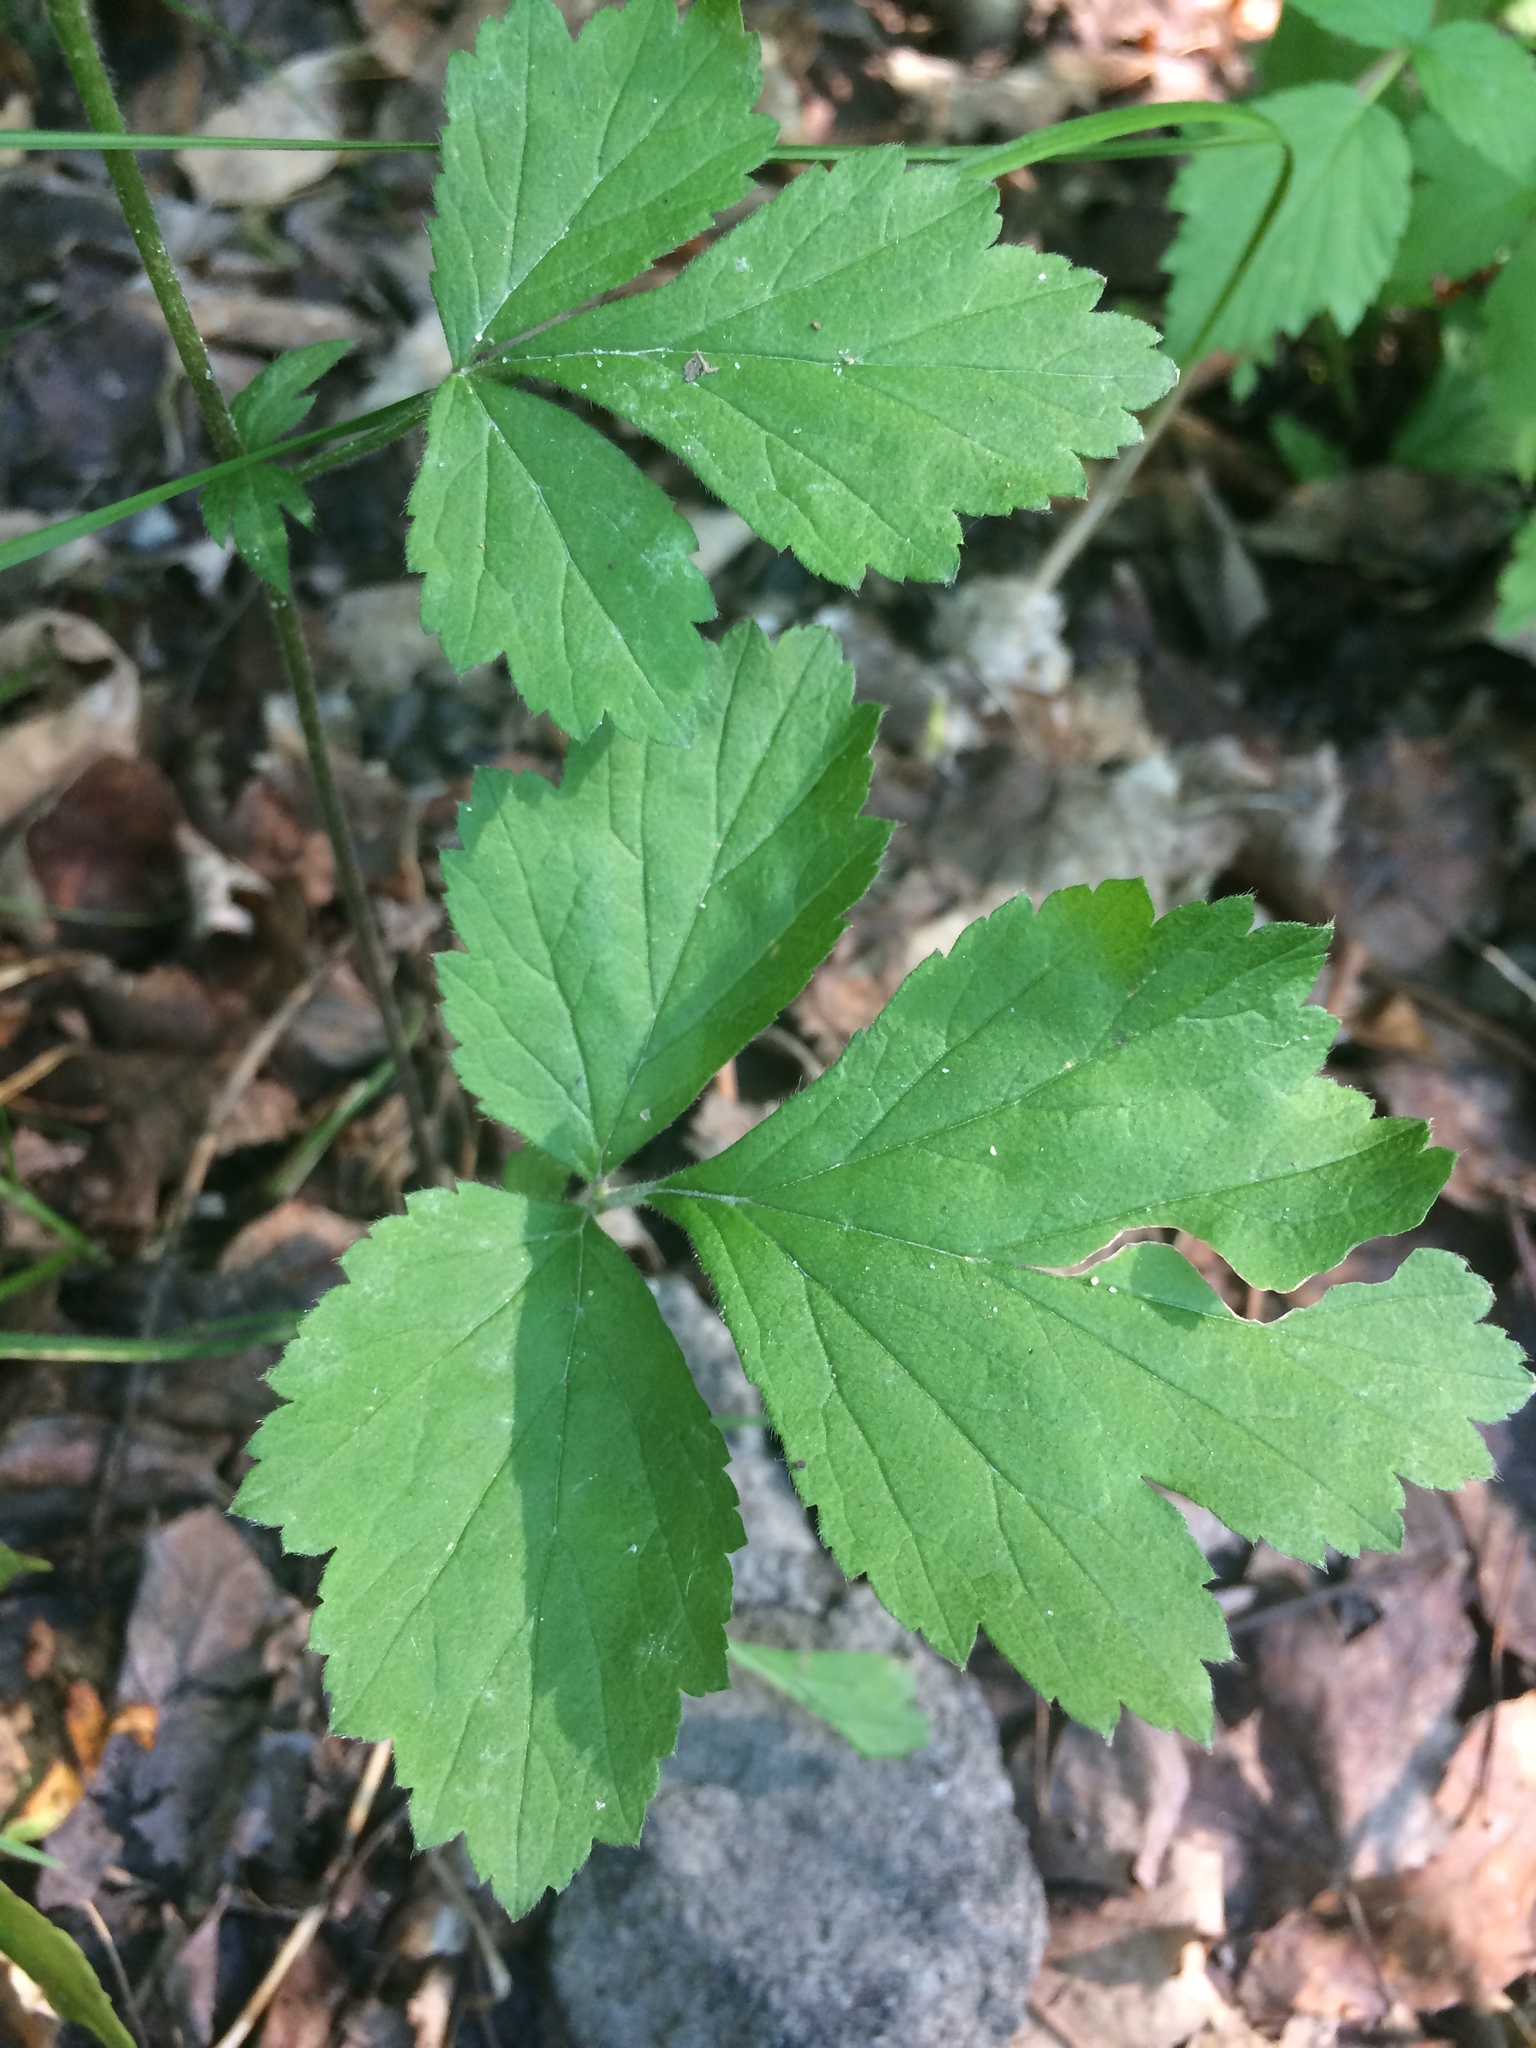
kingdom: Plantae
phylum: Tracheophyta
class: Magnoliopsida
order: Rosales
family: Rosaceae
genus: Geum
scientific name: Geum canadense
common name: White avens
